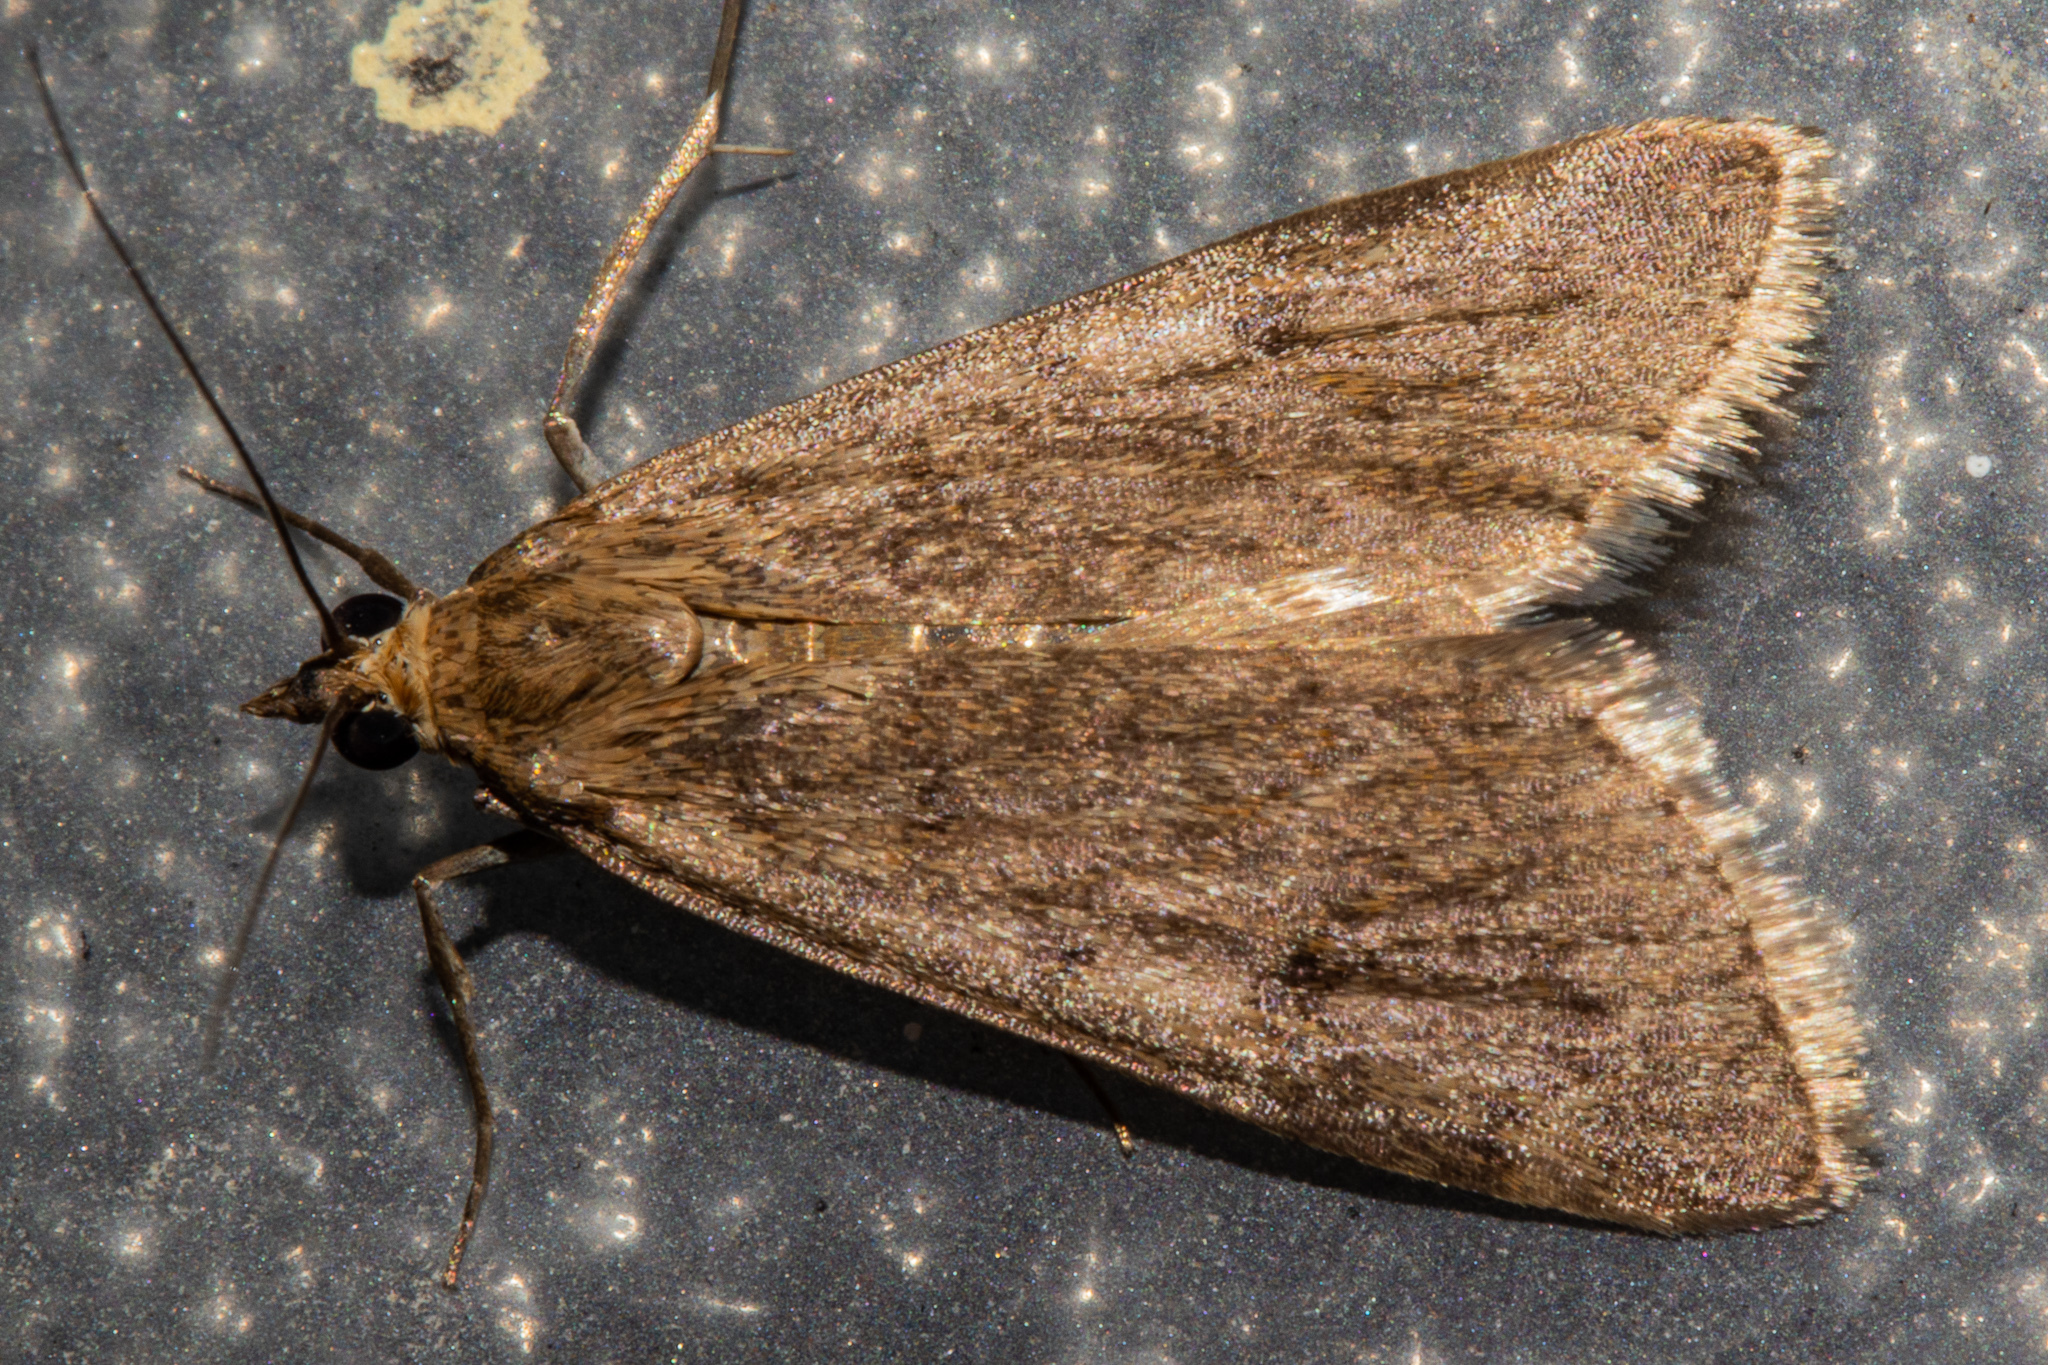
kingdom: Animalia
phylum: Arthropoda
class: Insecta
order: Lepidoptera
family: Crambidae
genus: Achyra
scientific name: Achyra affinitalis
